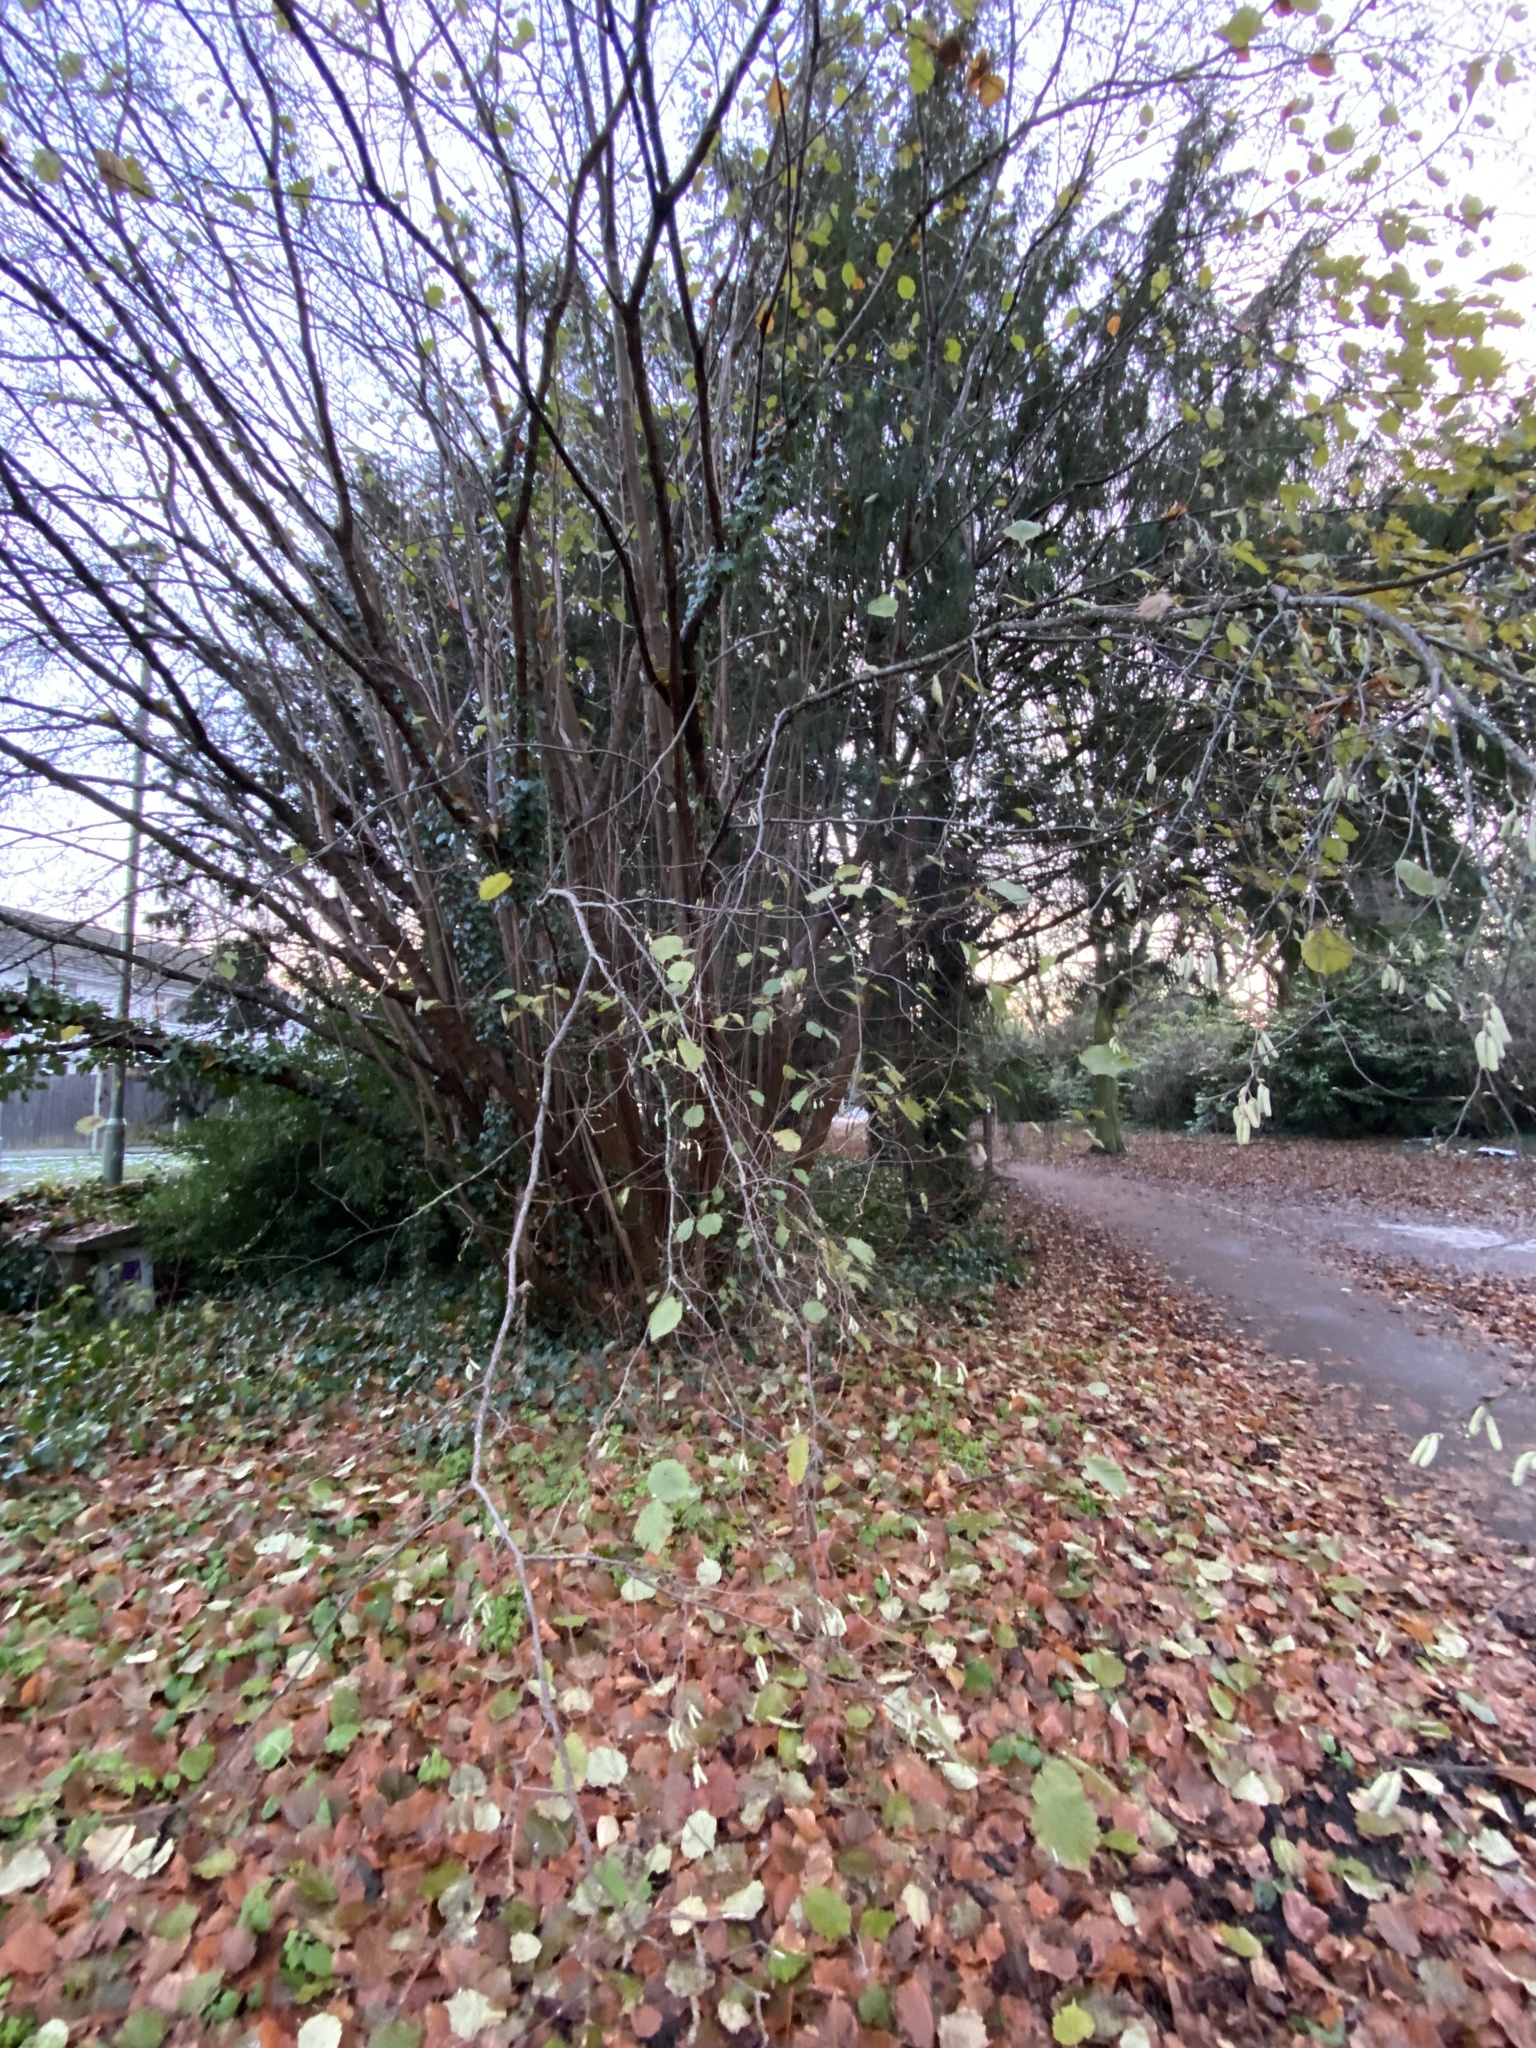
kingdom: Plantae
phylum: Tracheophyta
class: Magnoliopsida
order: Fagales
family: Betulaceae
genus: Corylus
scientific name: Corylus avellana
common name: European hazel
